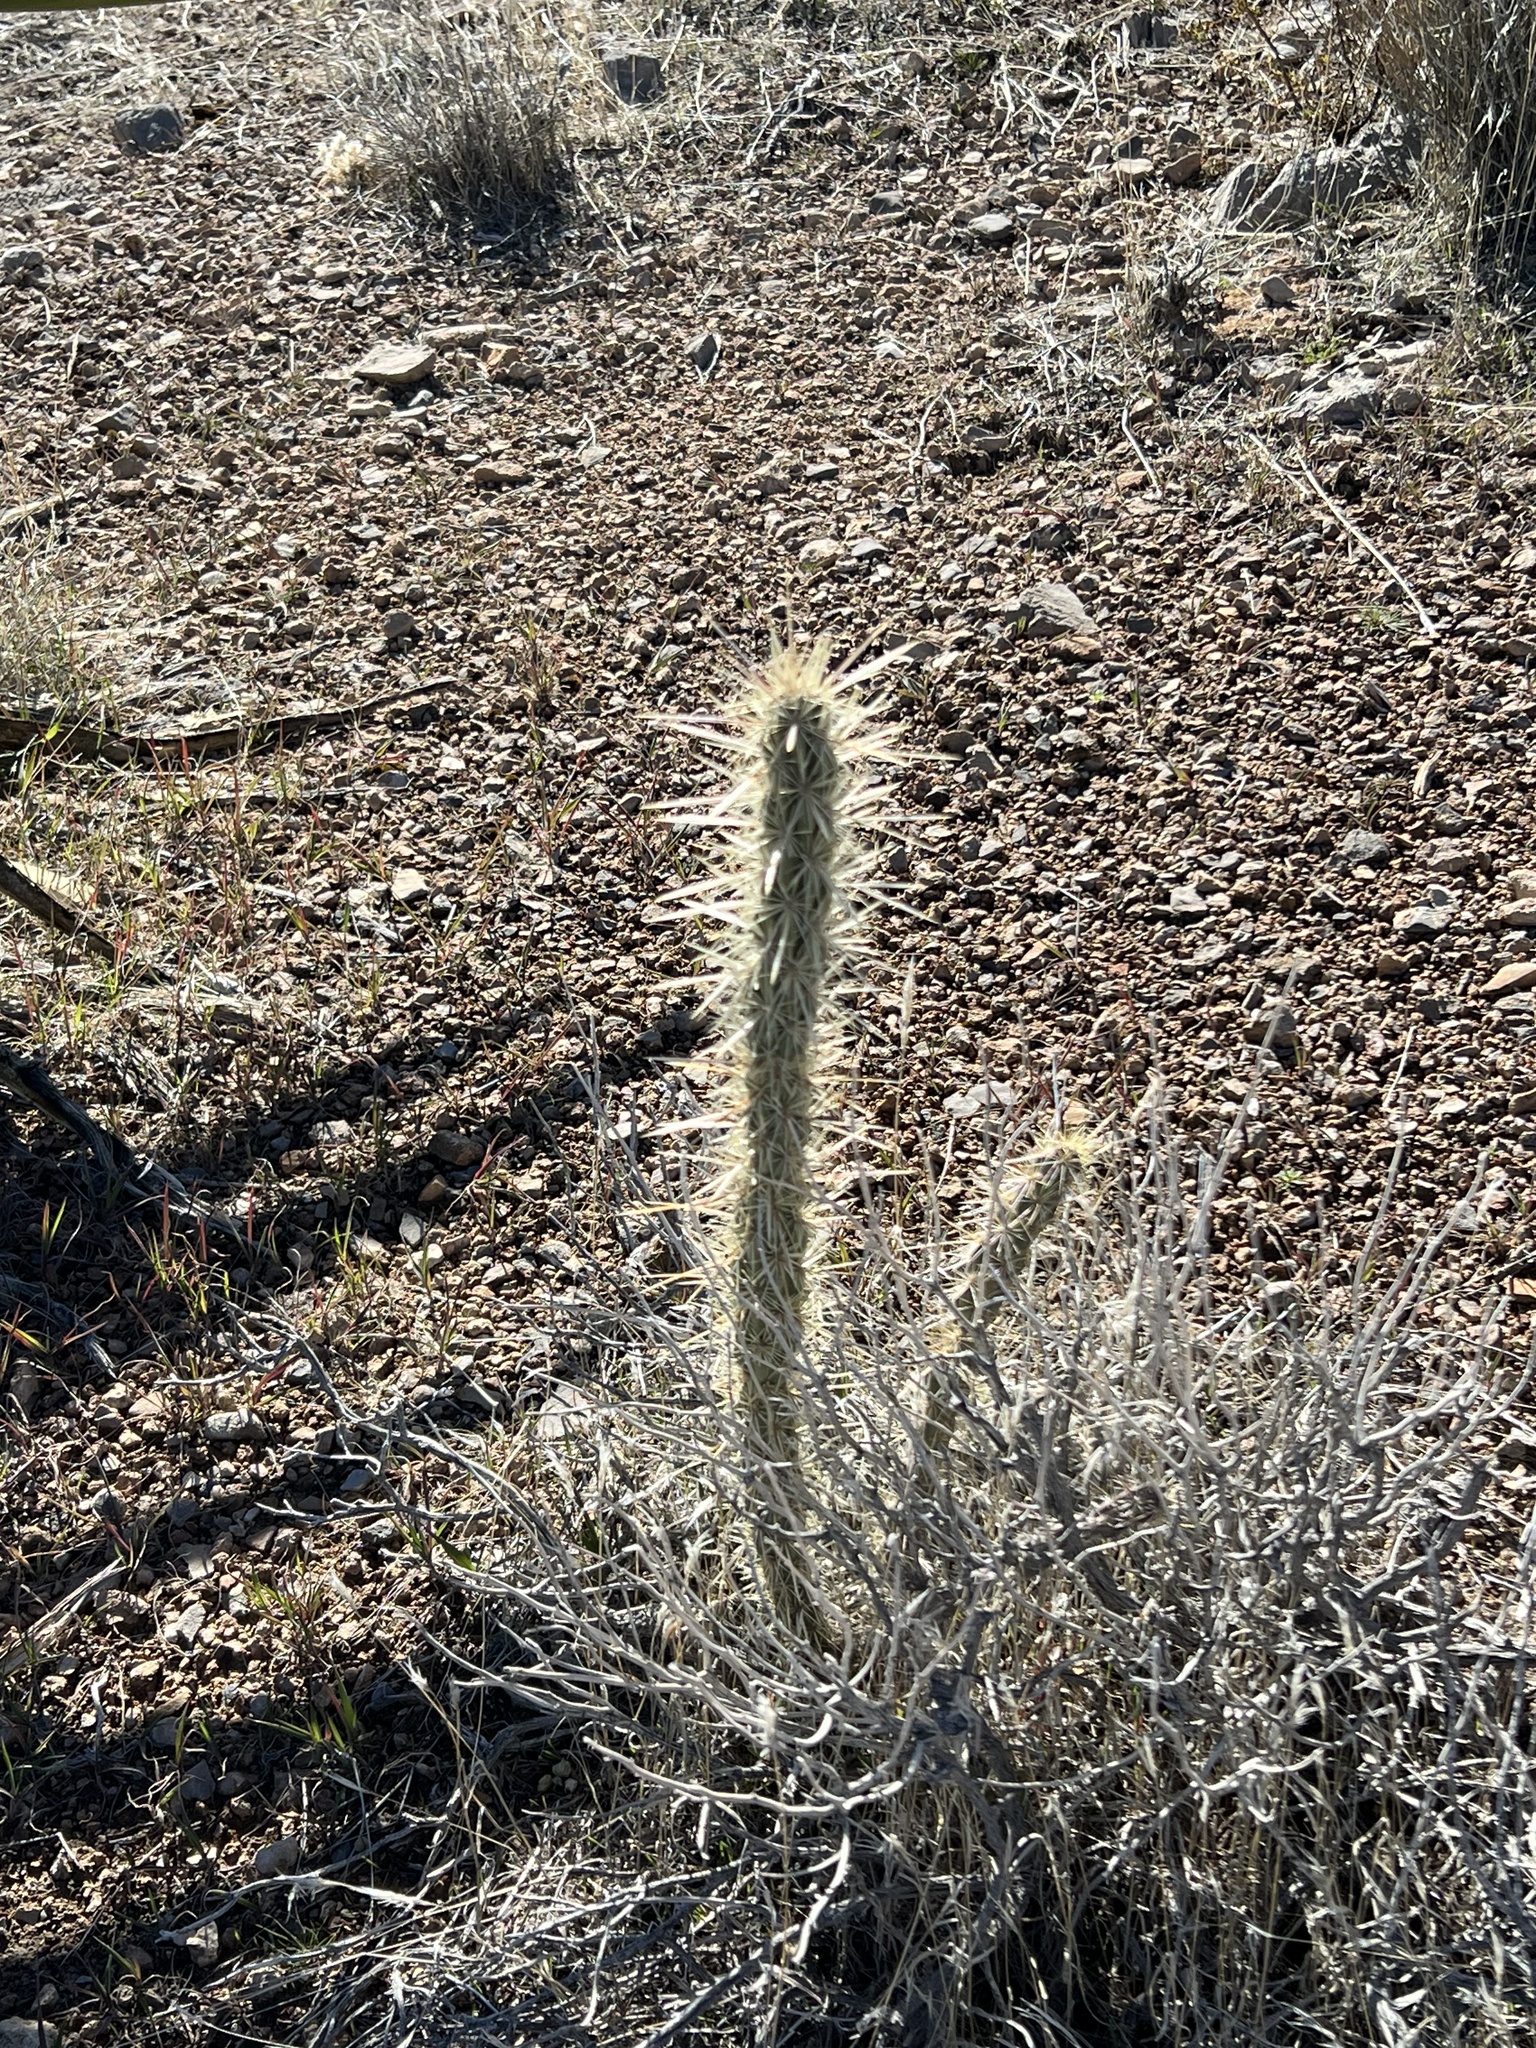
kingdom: Plantae
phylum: Tracheophyta
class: Magnoliopsida
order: Caryophyllales
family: Cactaceae
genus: Cylindropuntia
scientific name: Cylindropuntia acanthocarpa
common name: Buckhorn cholla
